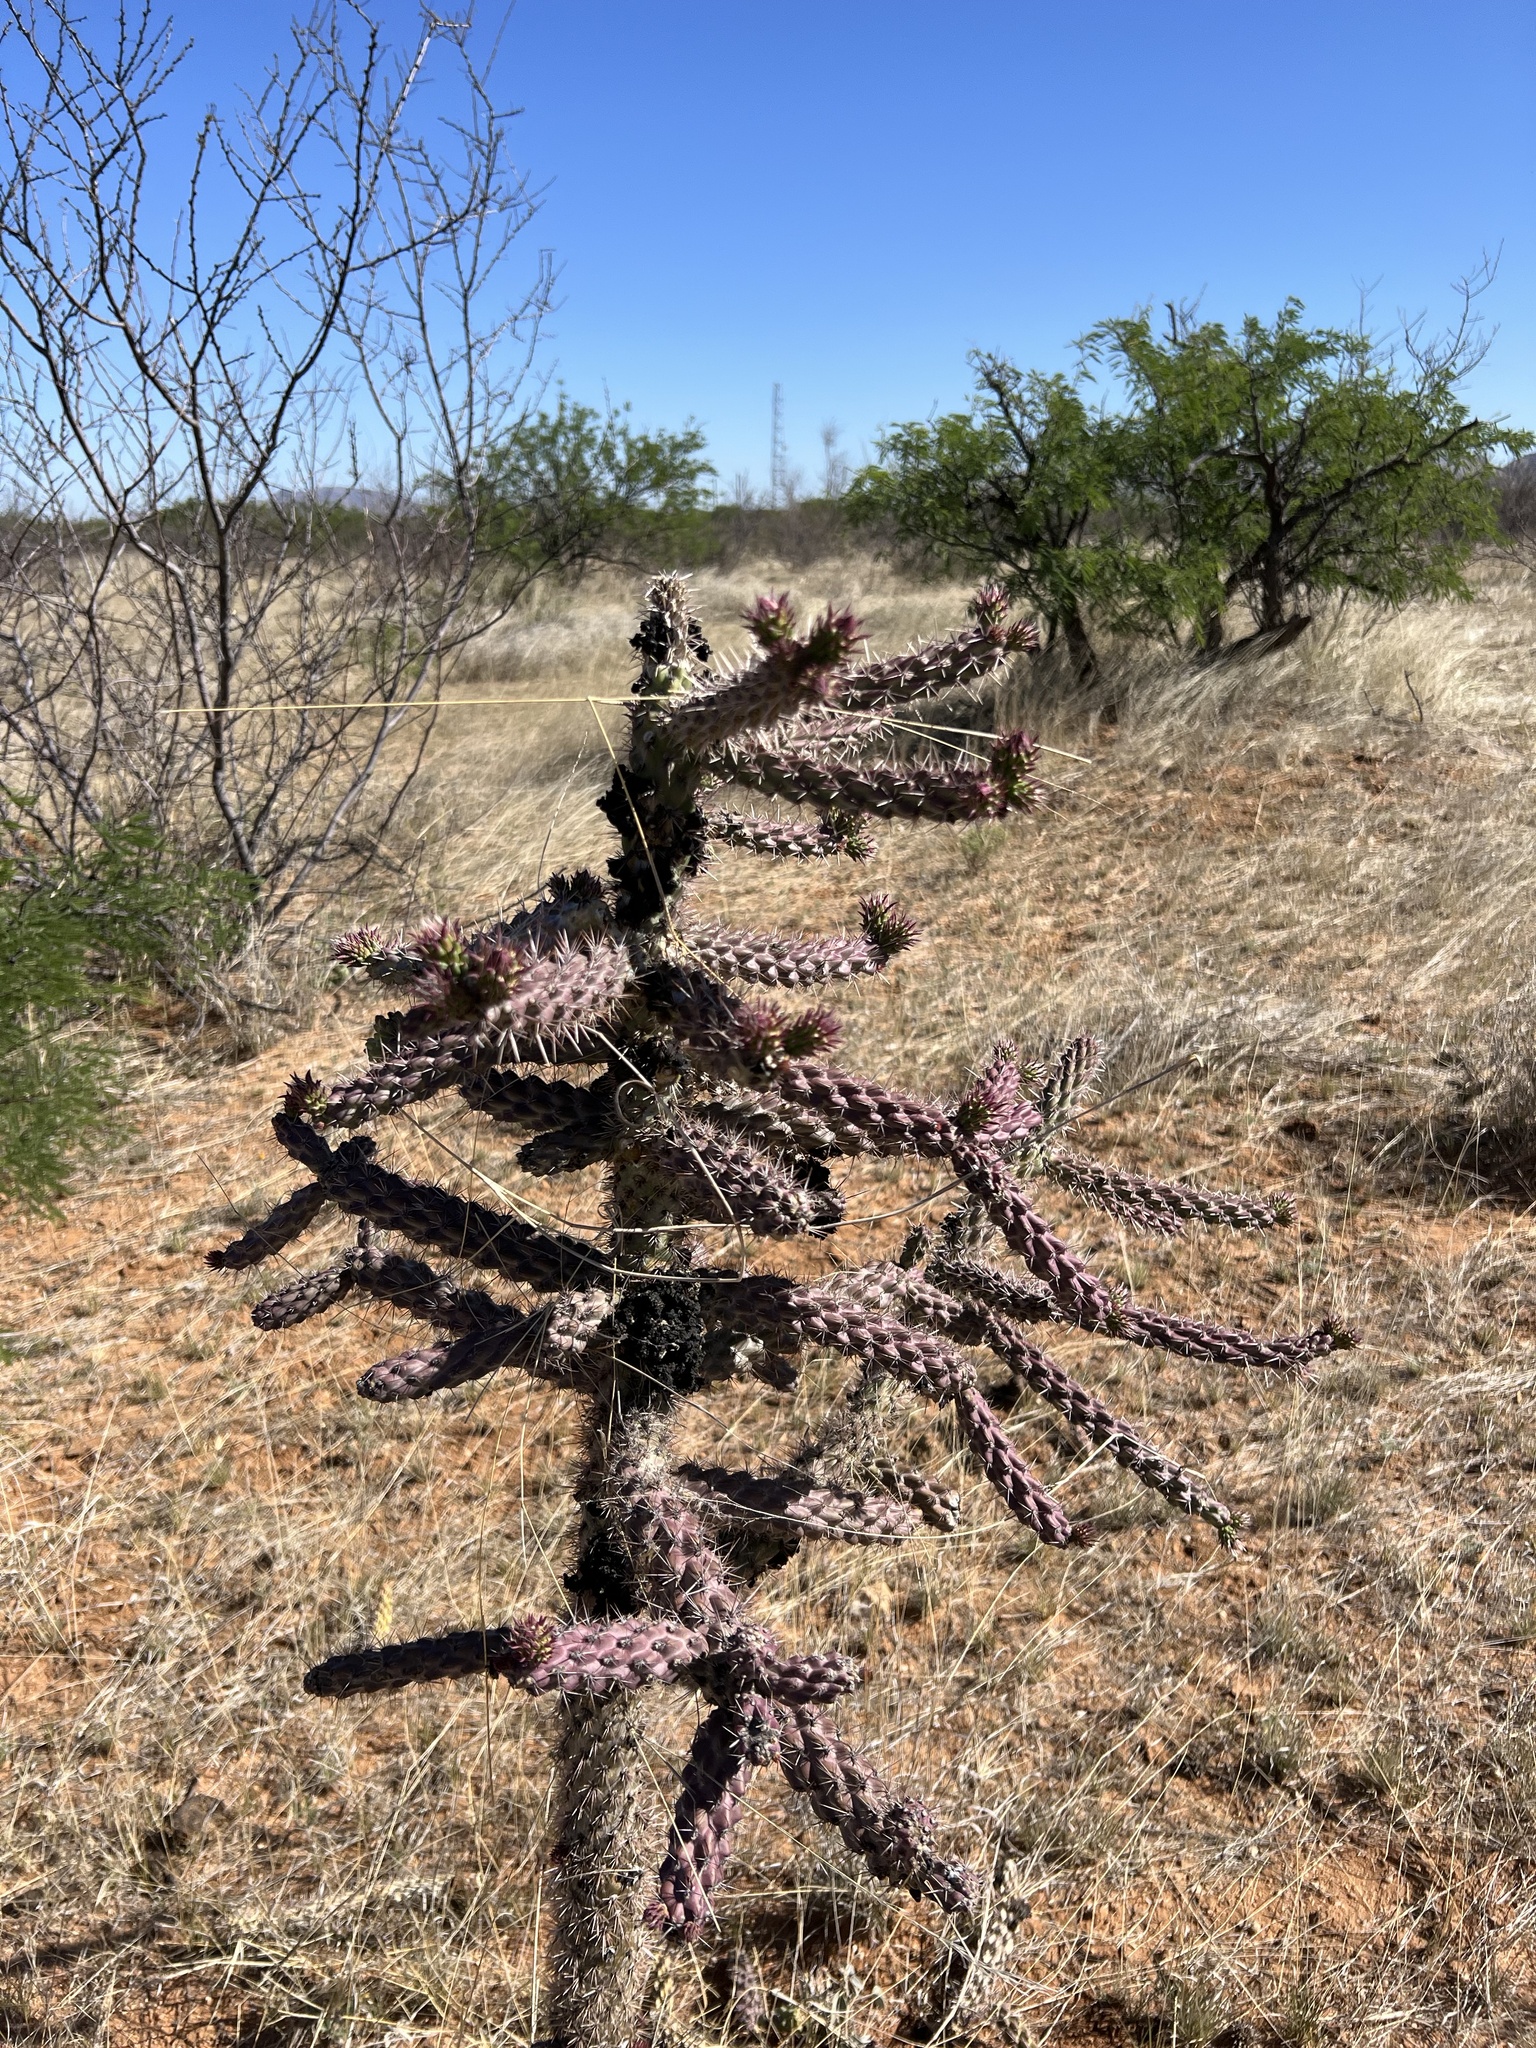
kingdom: Plantae
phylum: Tracheophyta
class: Magnoliopsida
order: Caryophyllales
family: Cactaceae
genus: Cylindropuntia
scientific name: Cylindropuntia imbricata
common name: Candelabrum cactus
